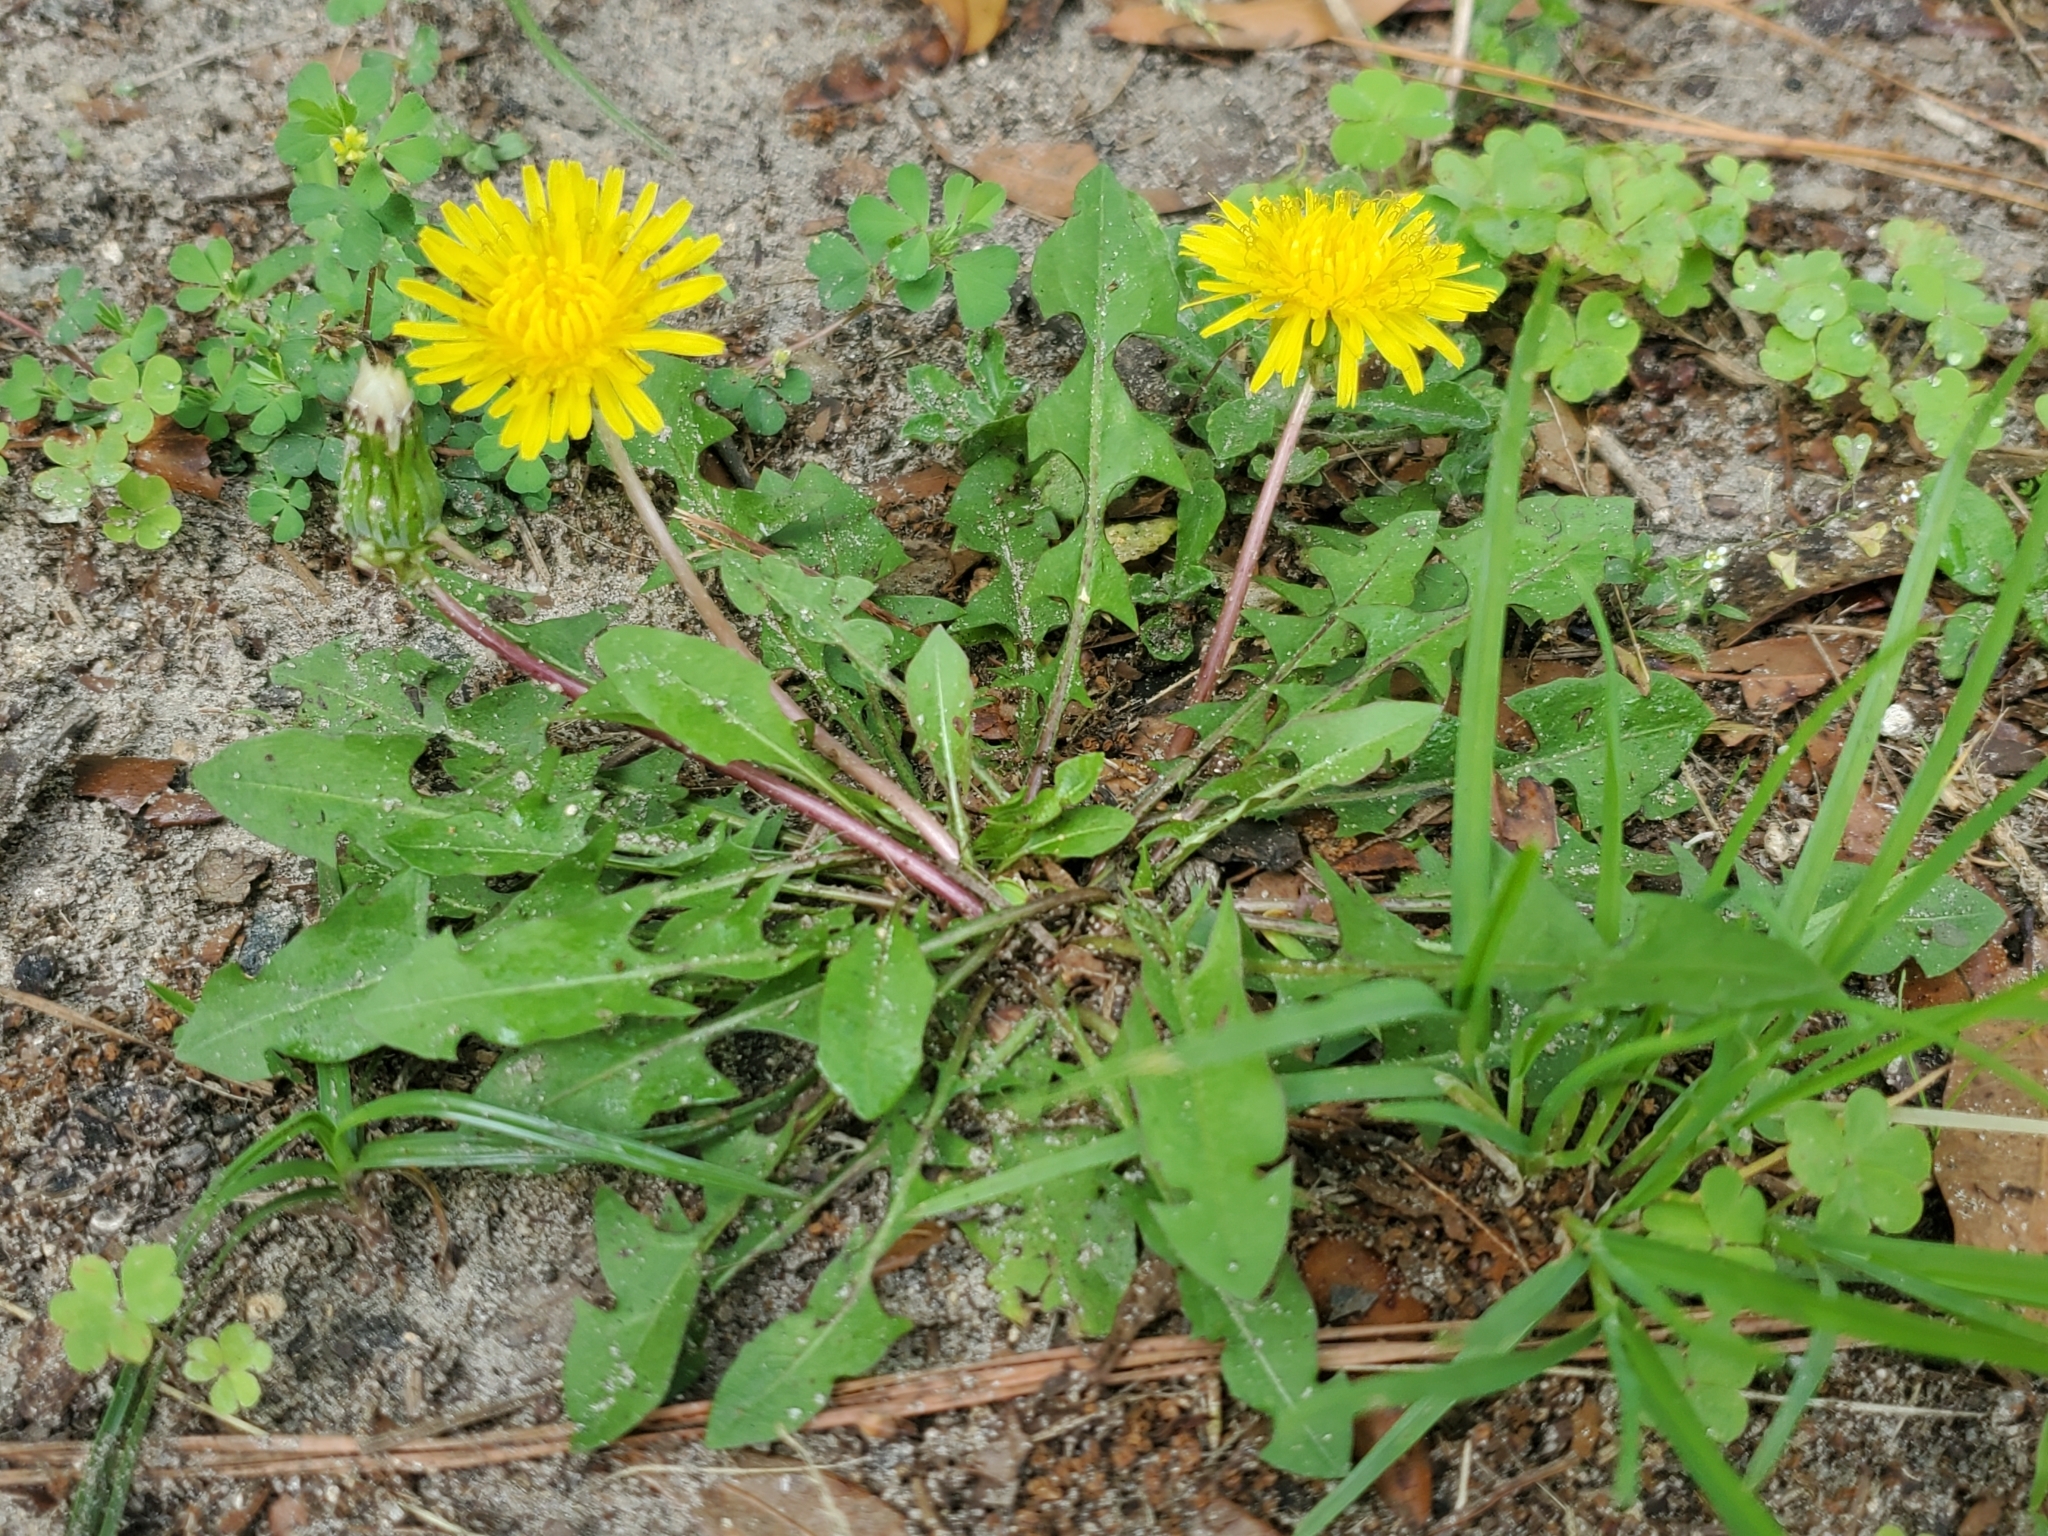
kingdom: Plantae
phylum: Tracheophyta
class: Magnoliopsida
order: Asterales
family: Asteraceae
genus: Taraxacum
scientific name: Taraxacum officinale
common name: Common dandelion
